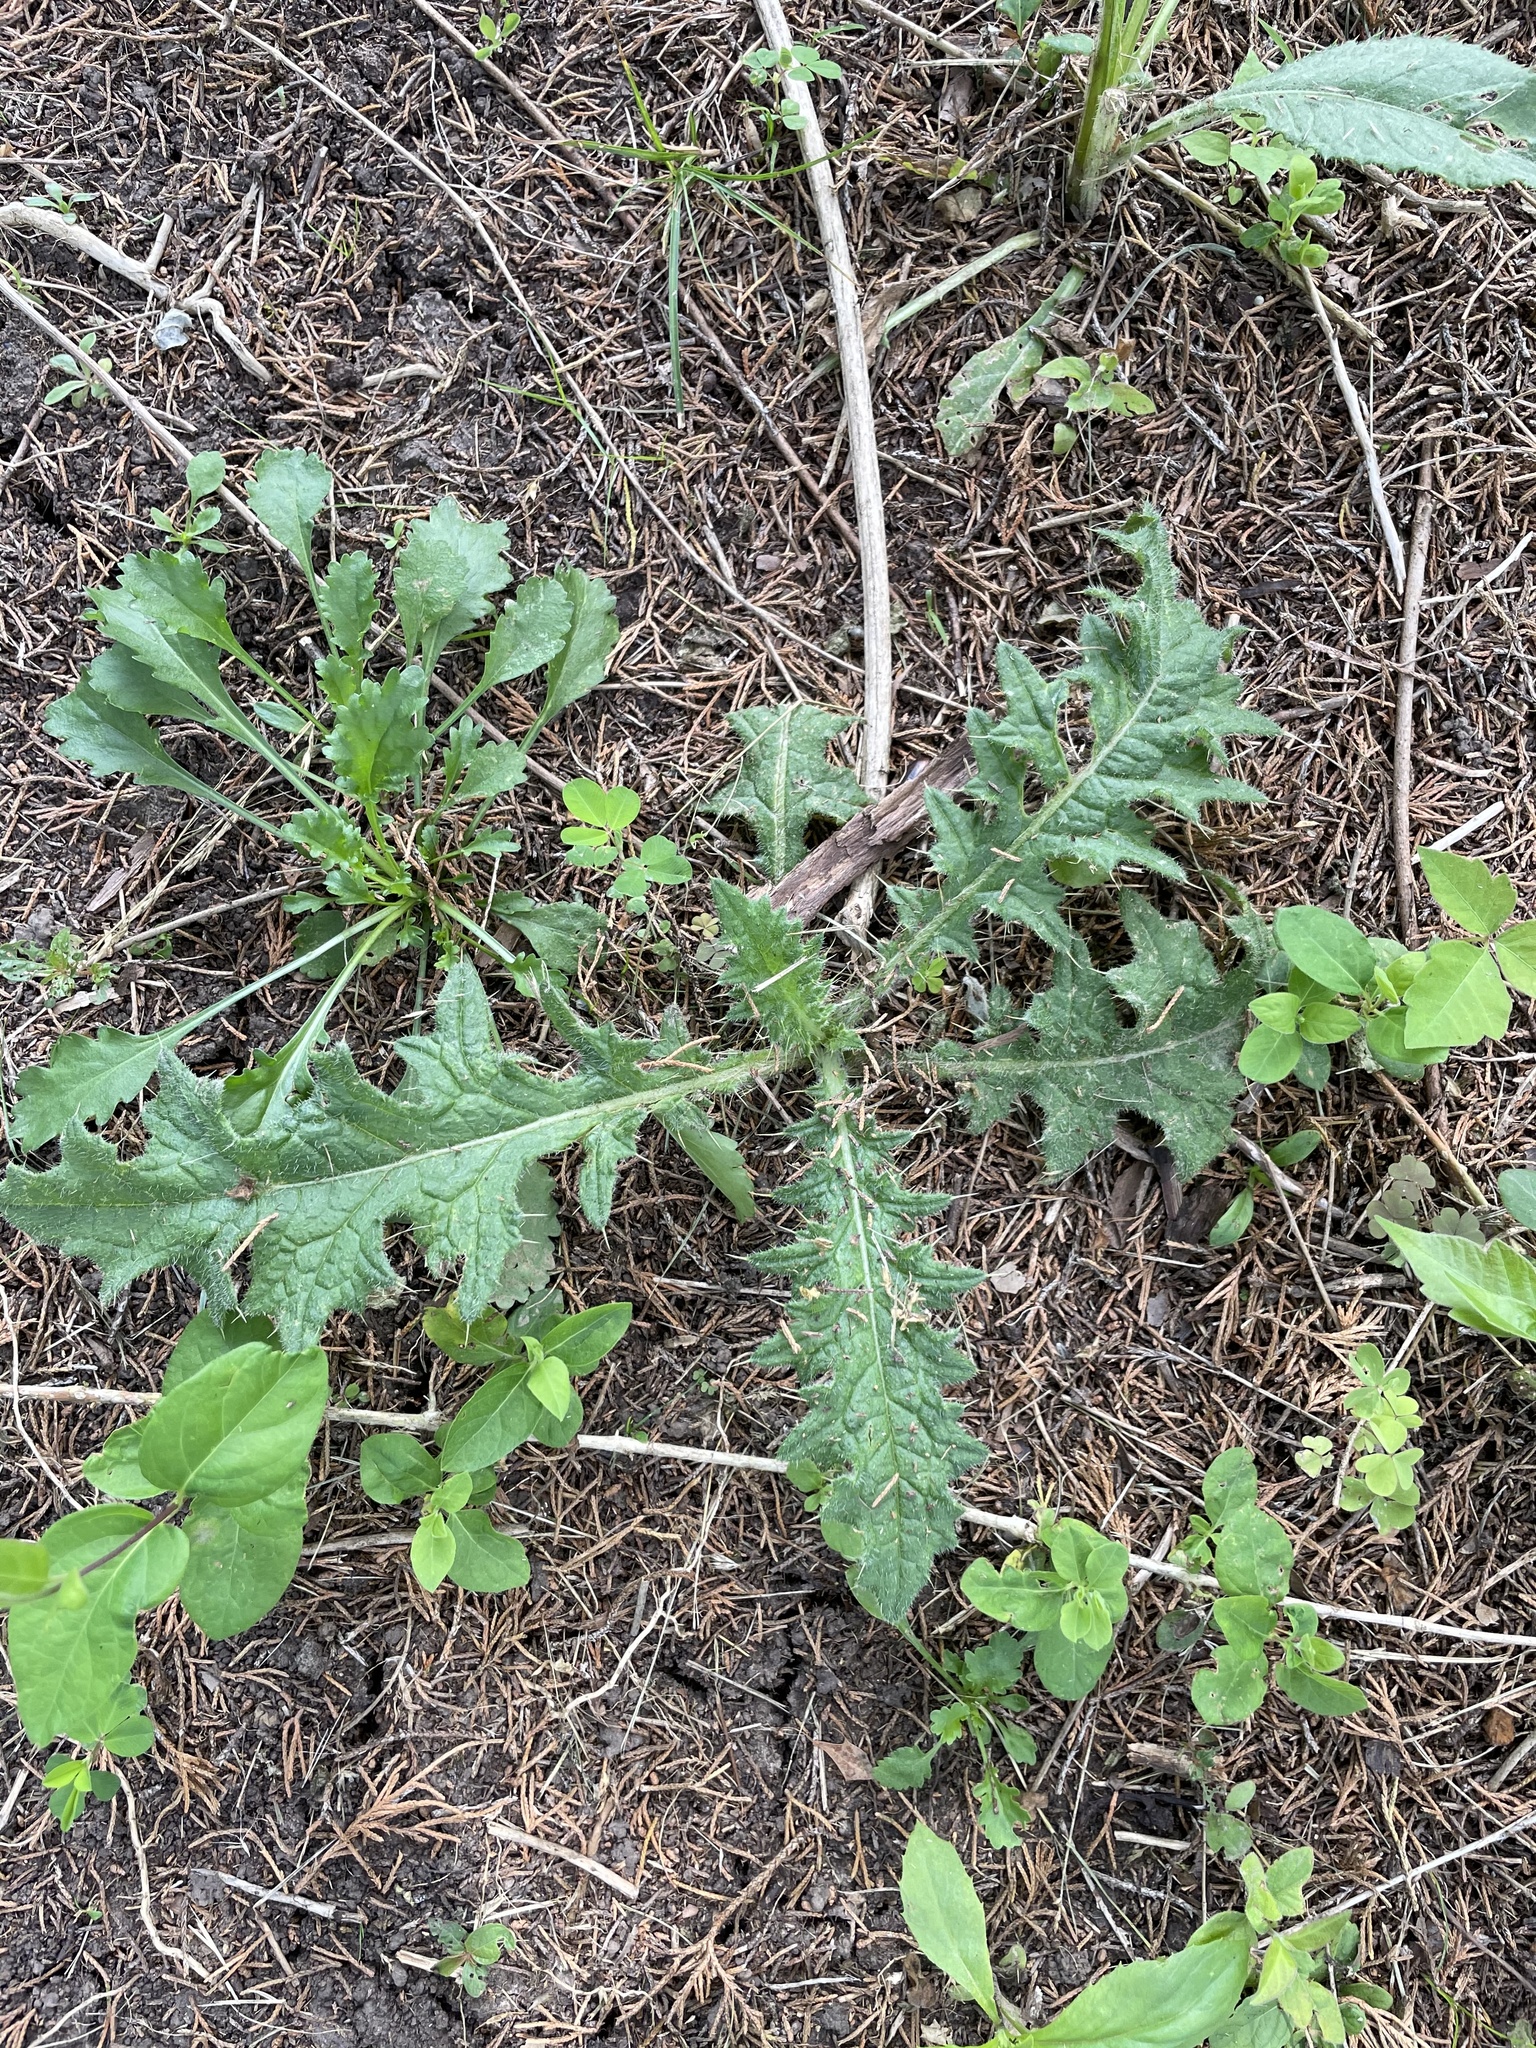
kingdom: Plantae
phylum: Tracheophyta
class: Magnoliopsida
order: Asterales
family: Asteraceae
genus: Cirsium
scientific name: Cirsium vulgare
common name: Bull thistle
